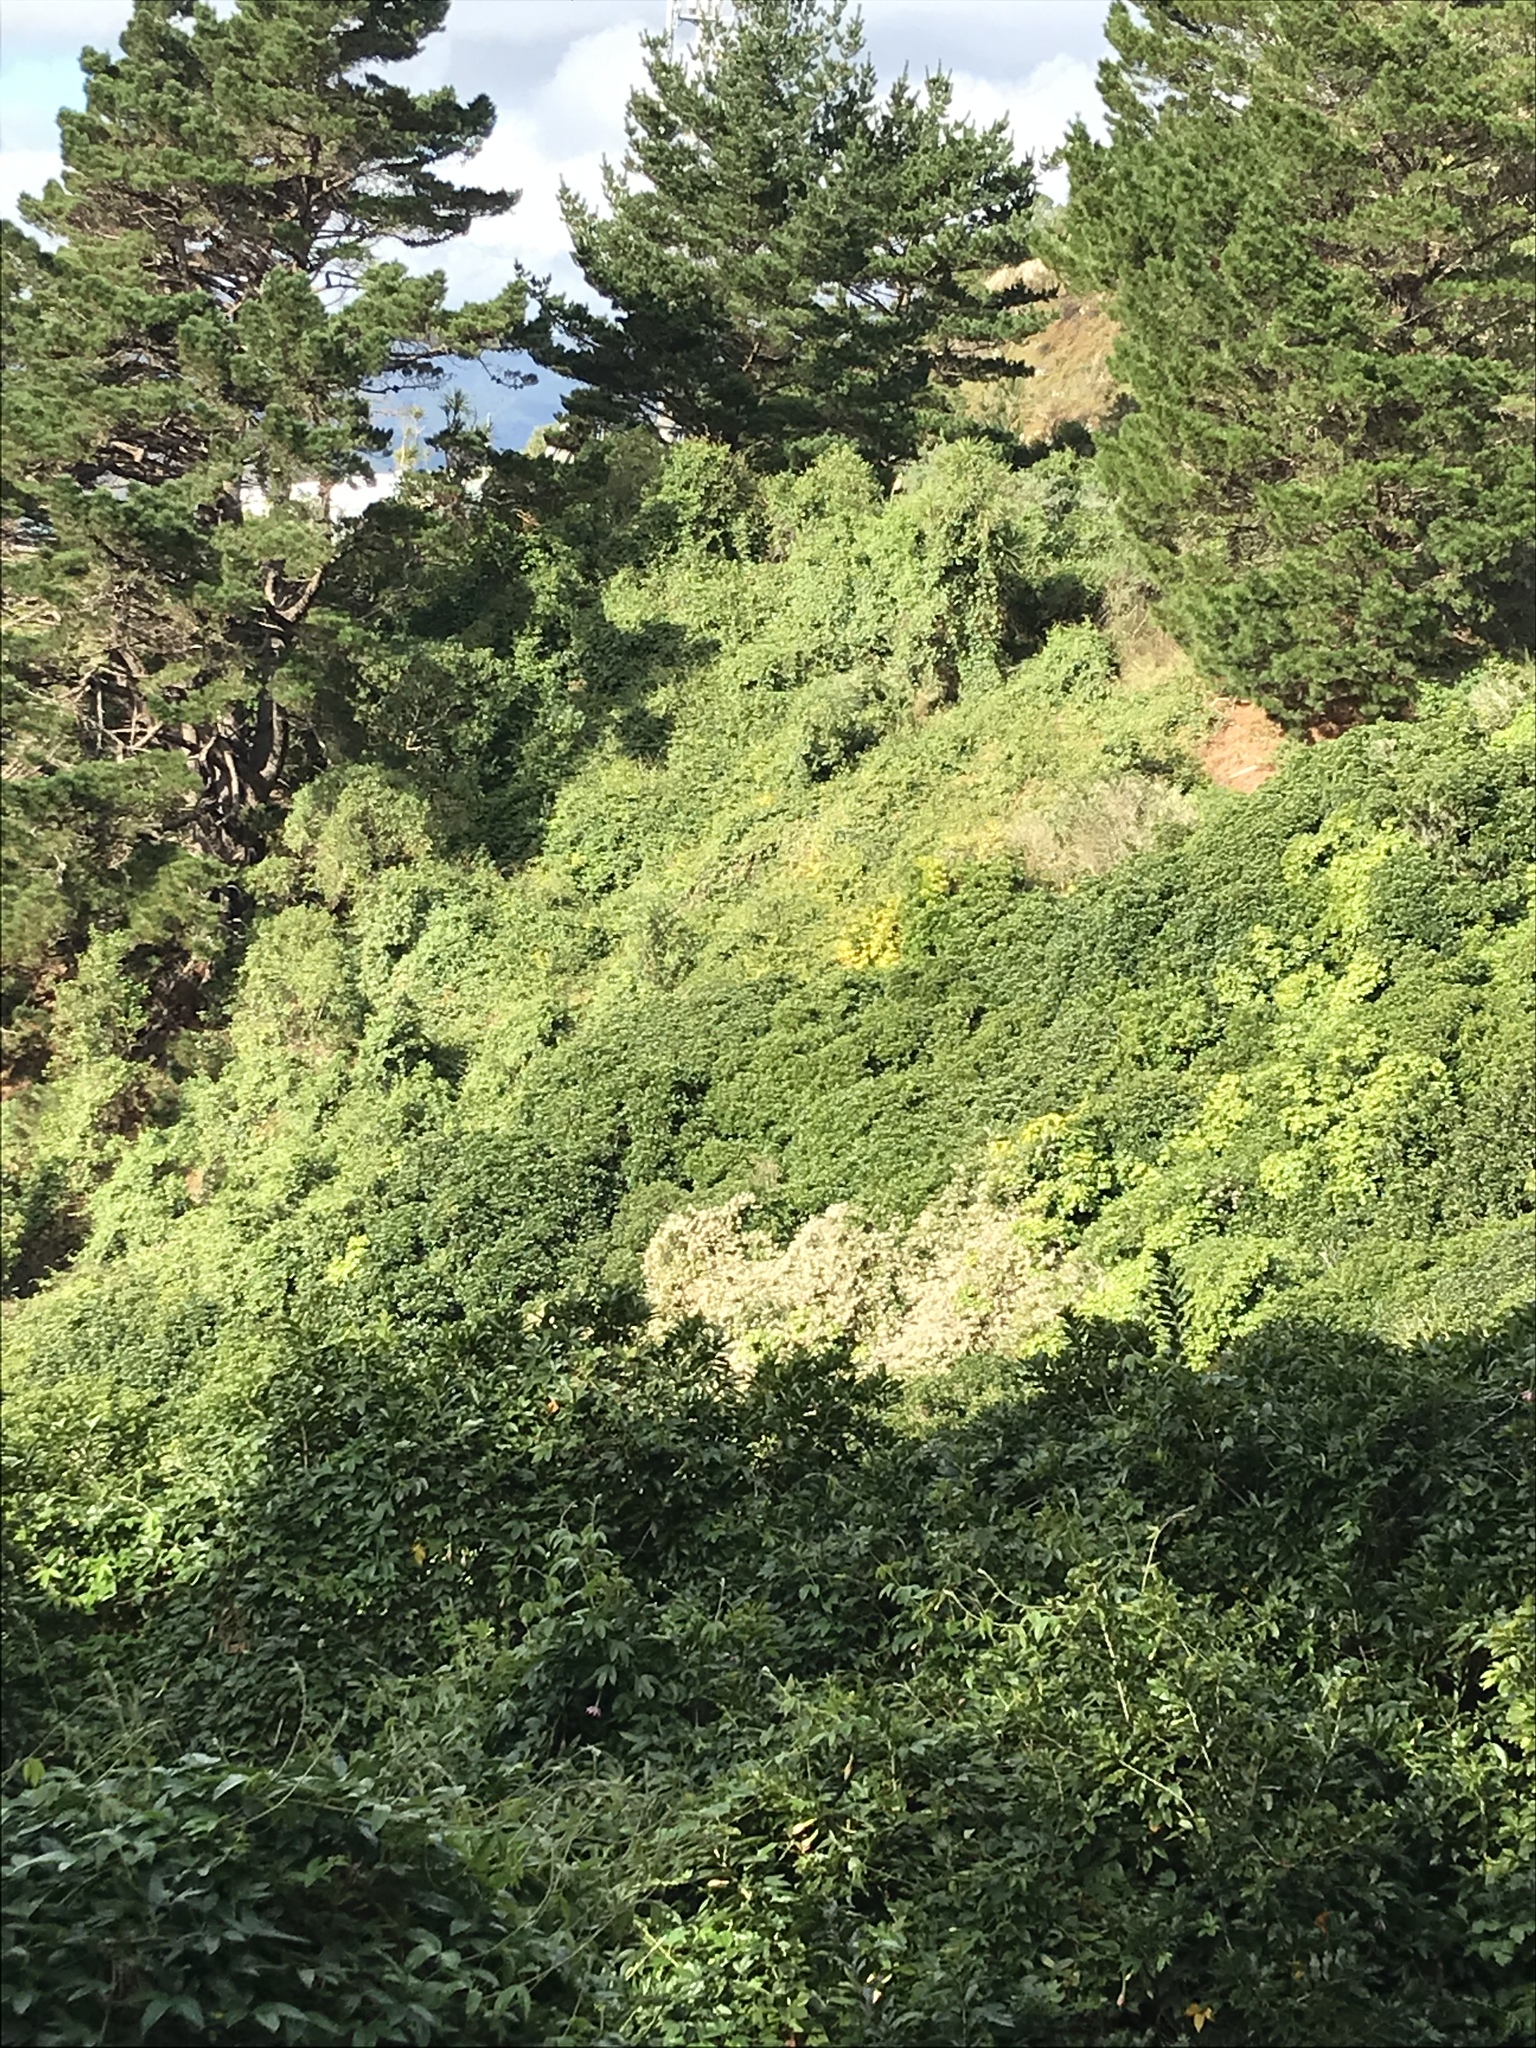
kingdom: Plantae
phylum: Tracheophyta
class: Magnoliopsida
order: Ranunculales
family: Ranunculaceae
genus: Clematis
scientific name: Clematis vitalba
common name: Evergreen clematis
